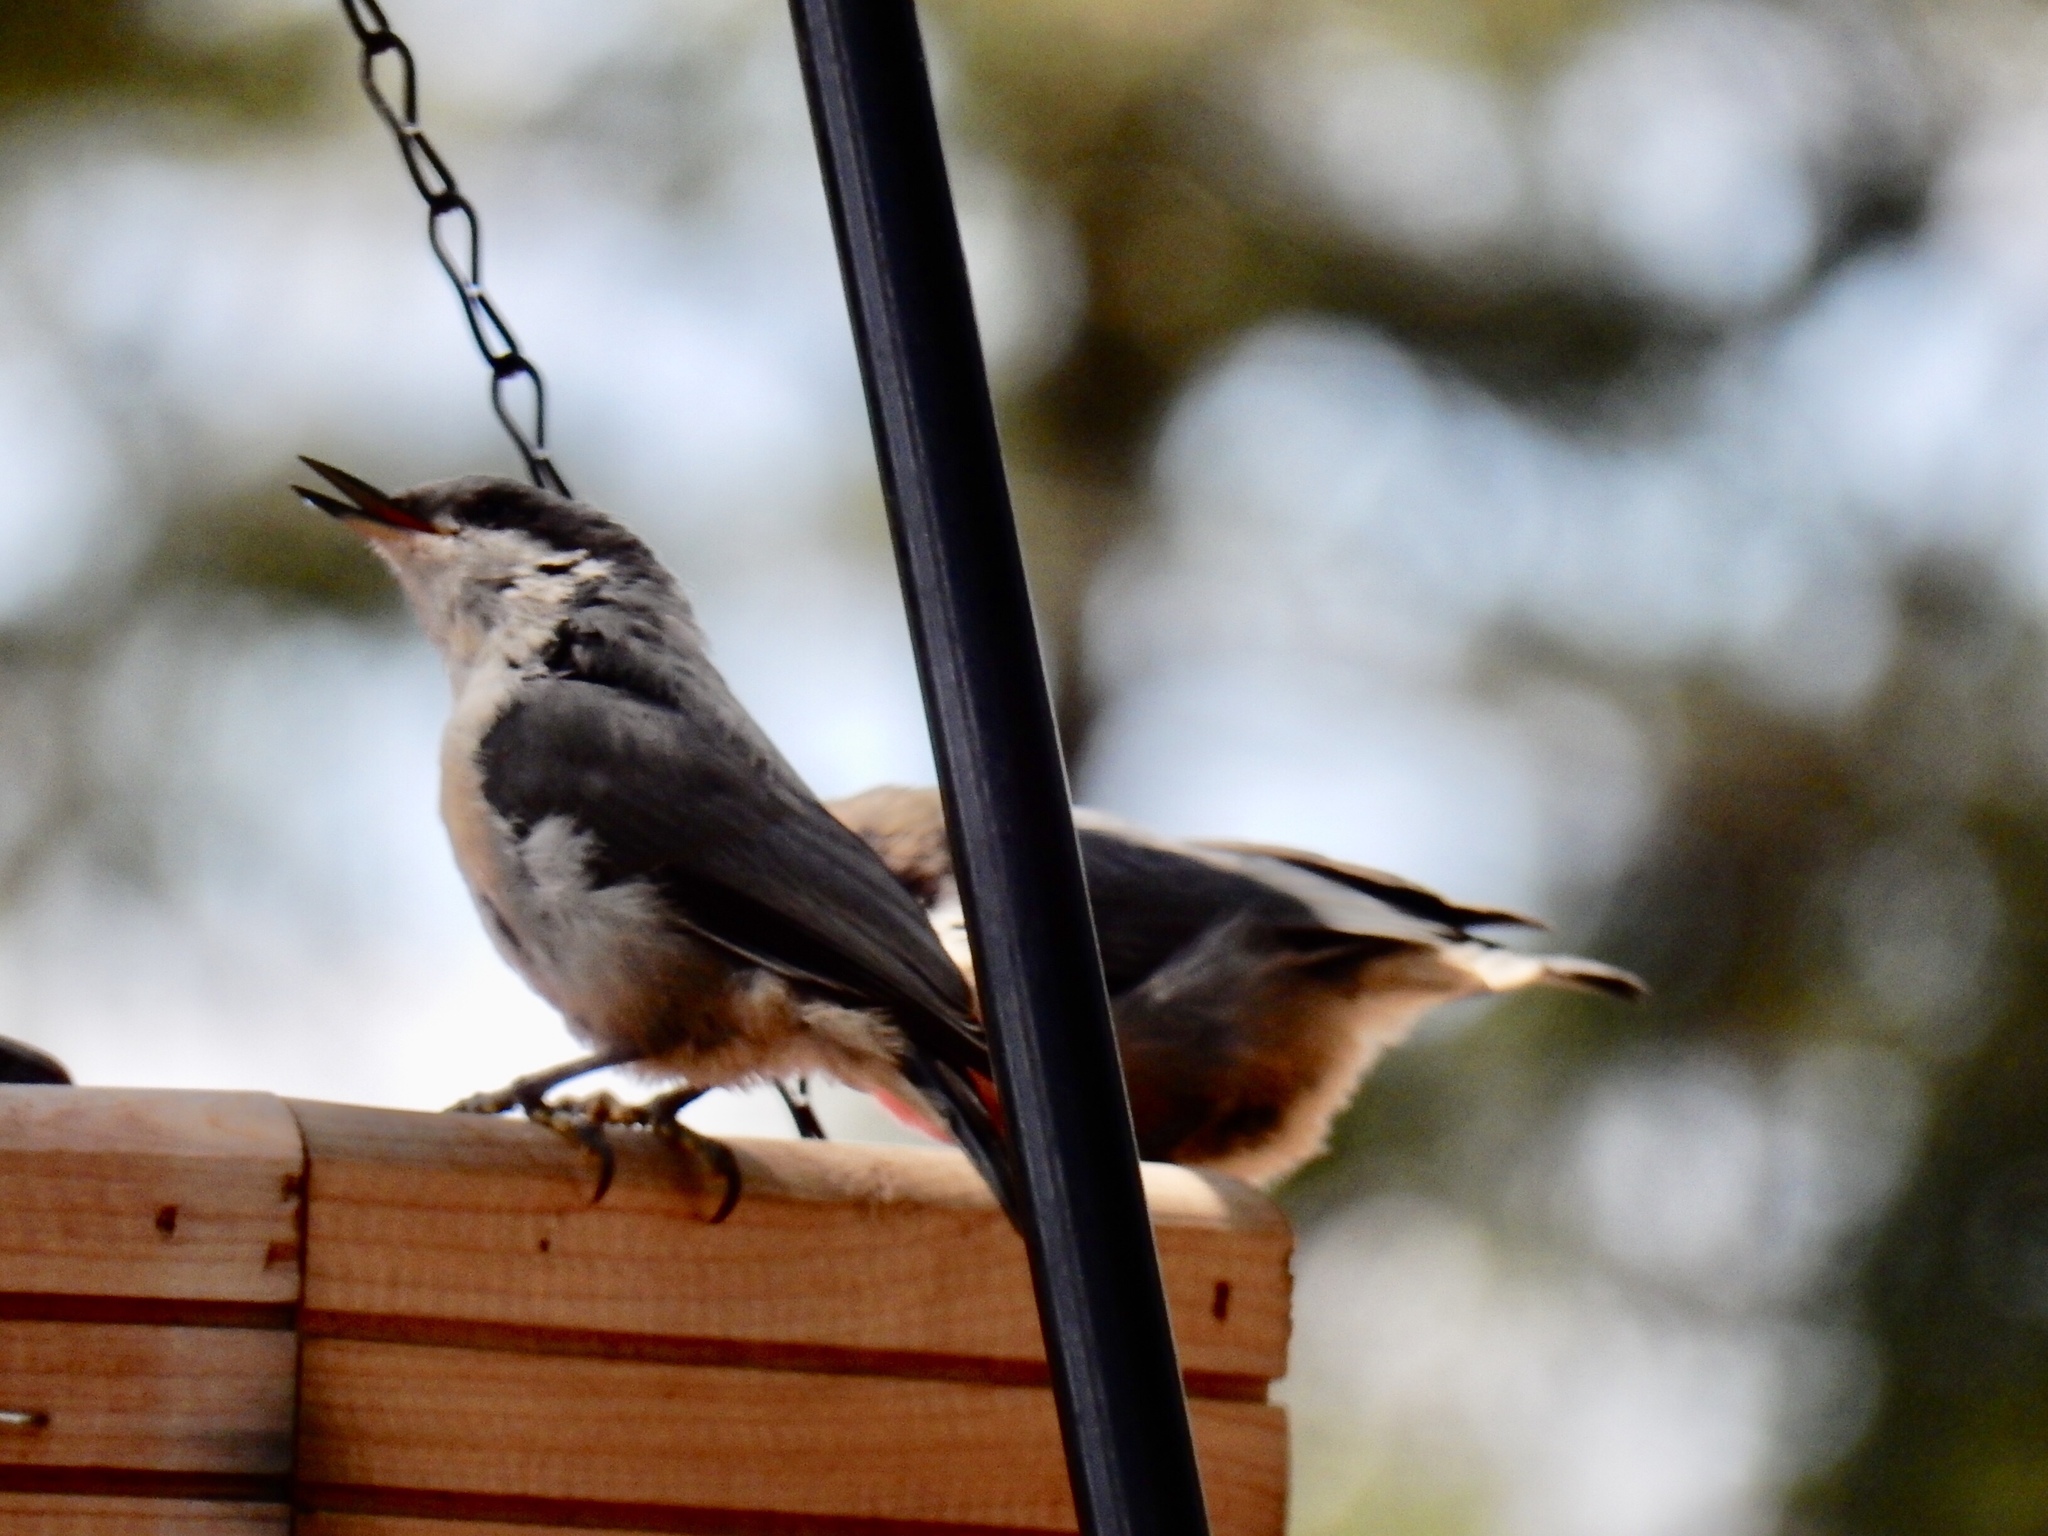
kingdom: Animalia
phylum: Chordata
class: Aves
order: Passeriformes
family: Sittidae
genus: Sitta
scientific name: Sitta pygmaea
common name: Pygmy nuthatch
